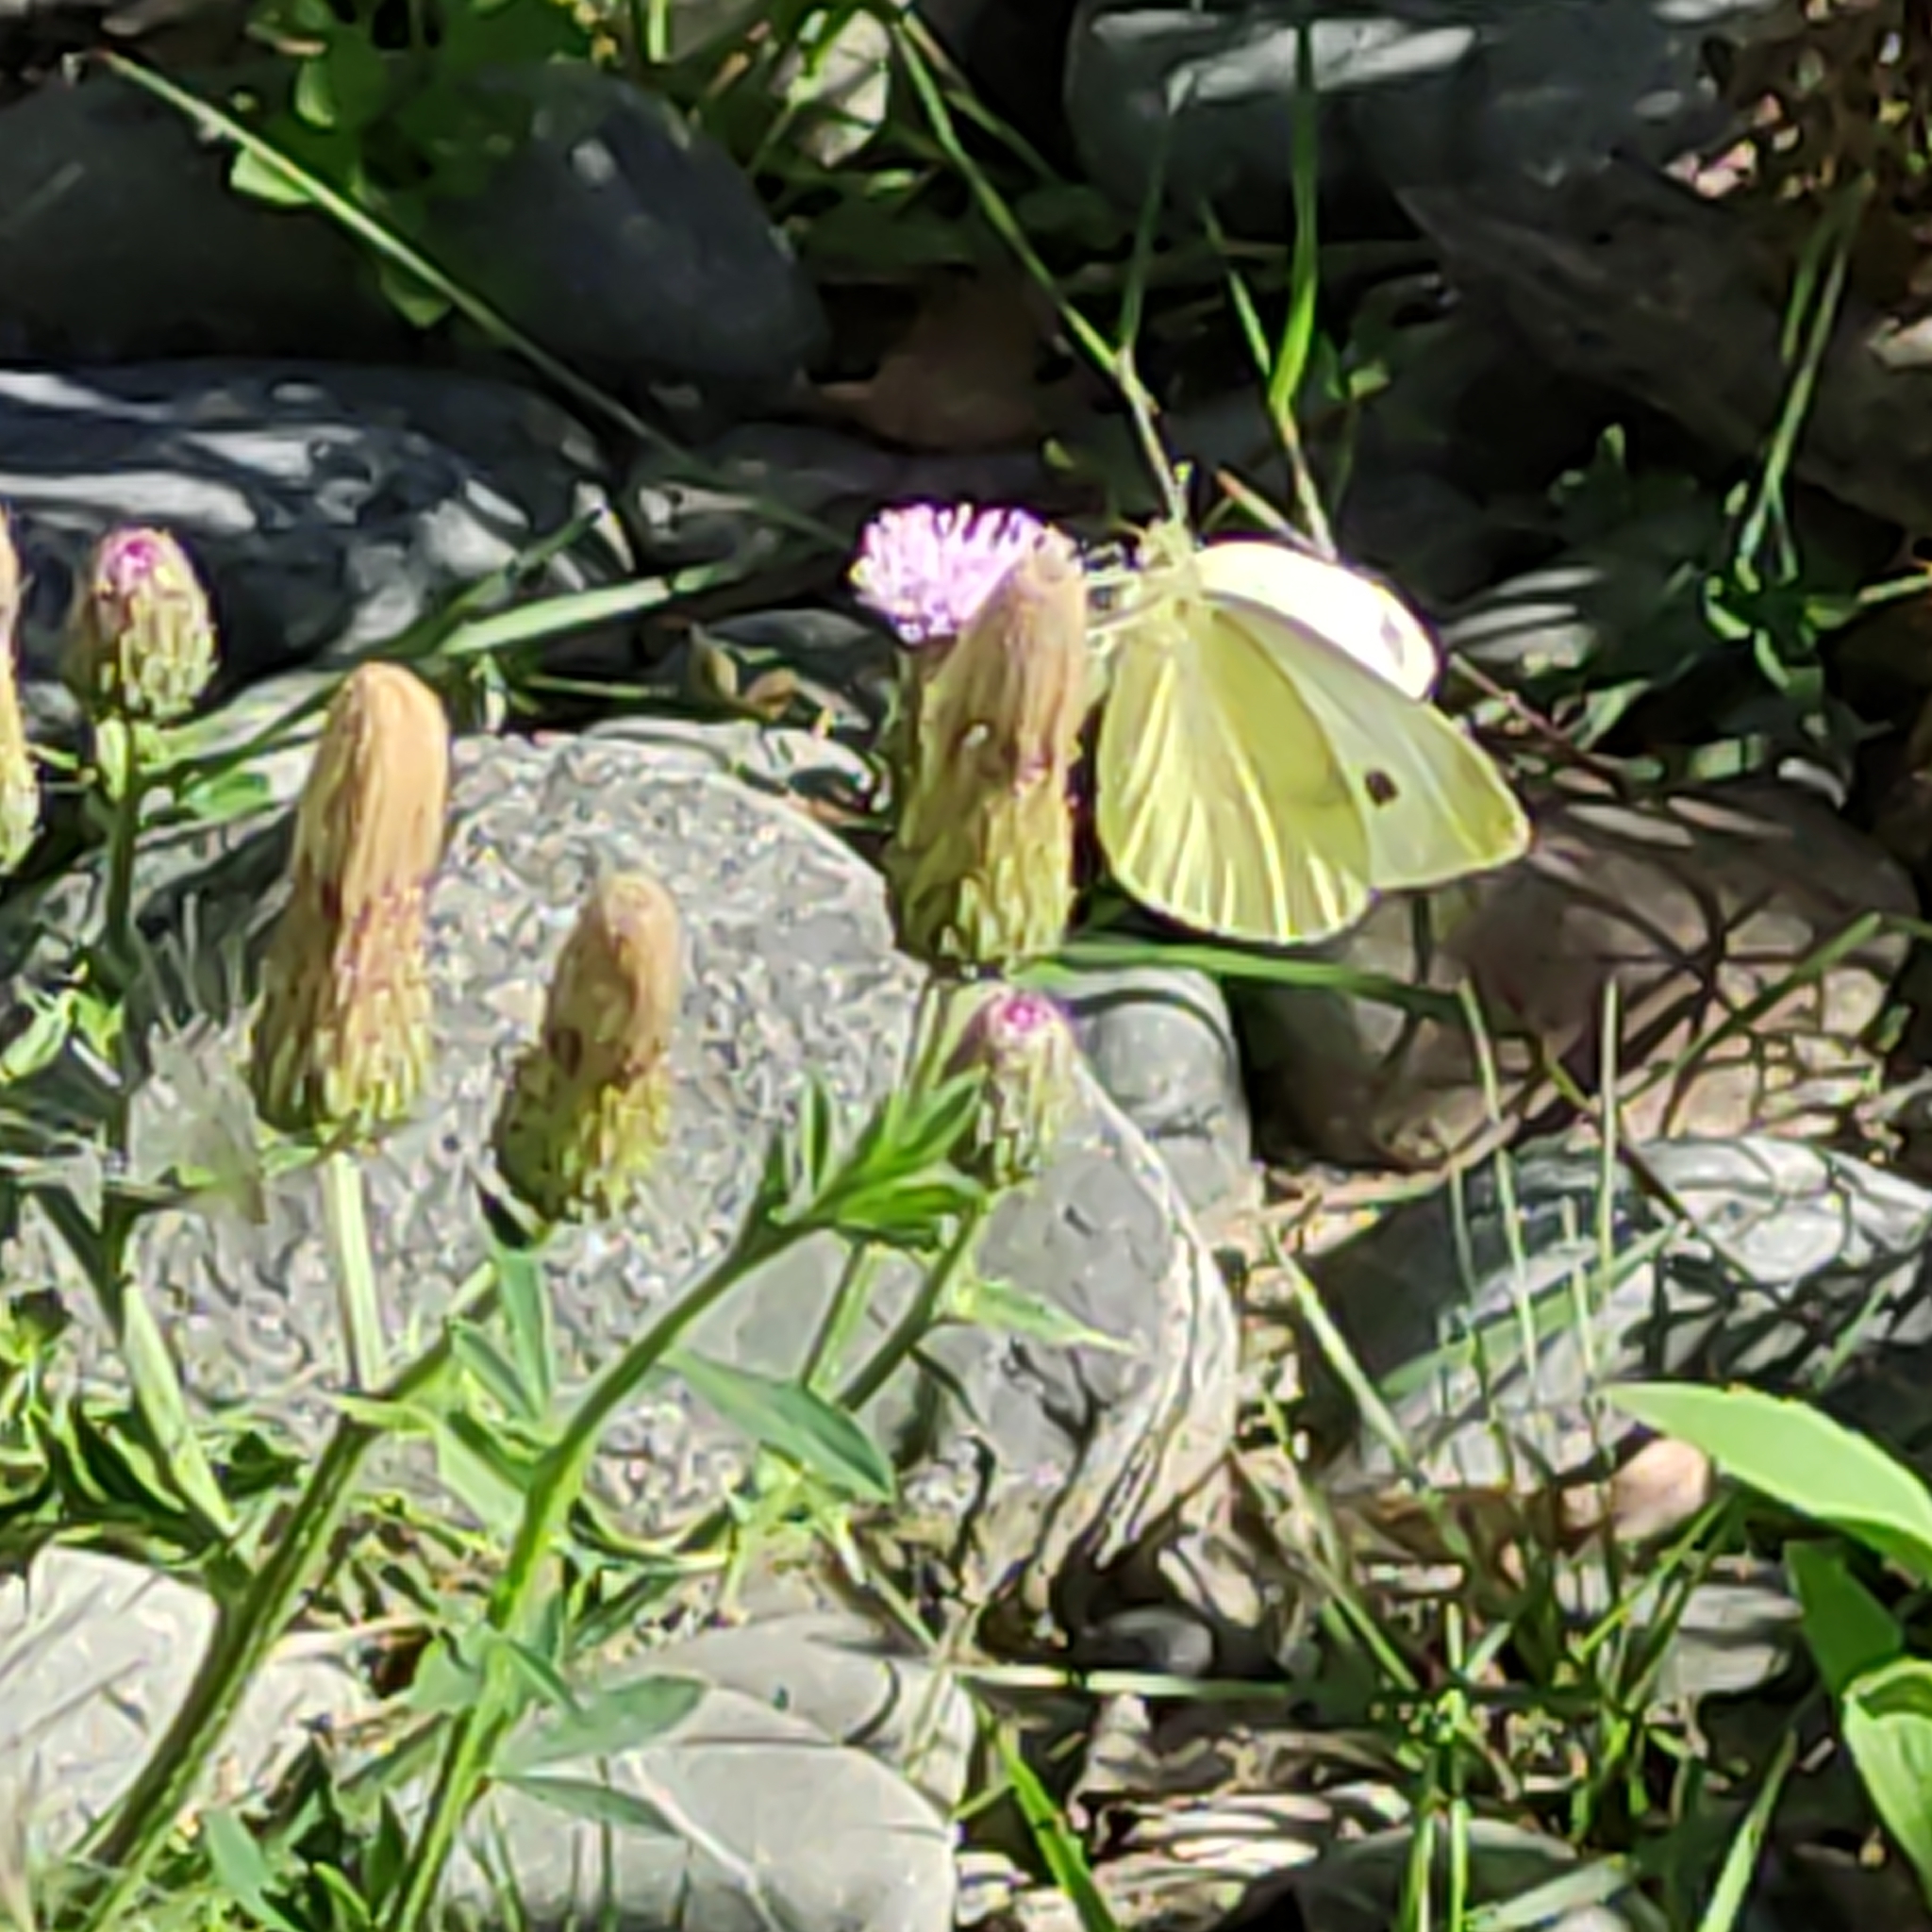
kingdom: Animalia
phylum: Arthropoda
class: Insecta
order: Lepidoptera
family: Pieridae
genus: Pieris
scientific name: Pieris rapae
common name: Small white
